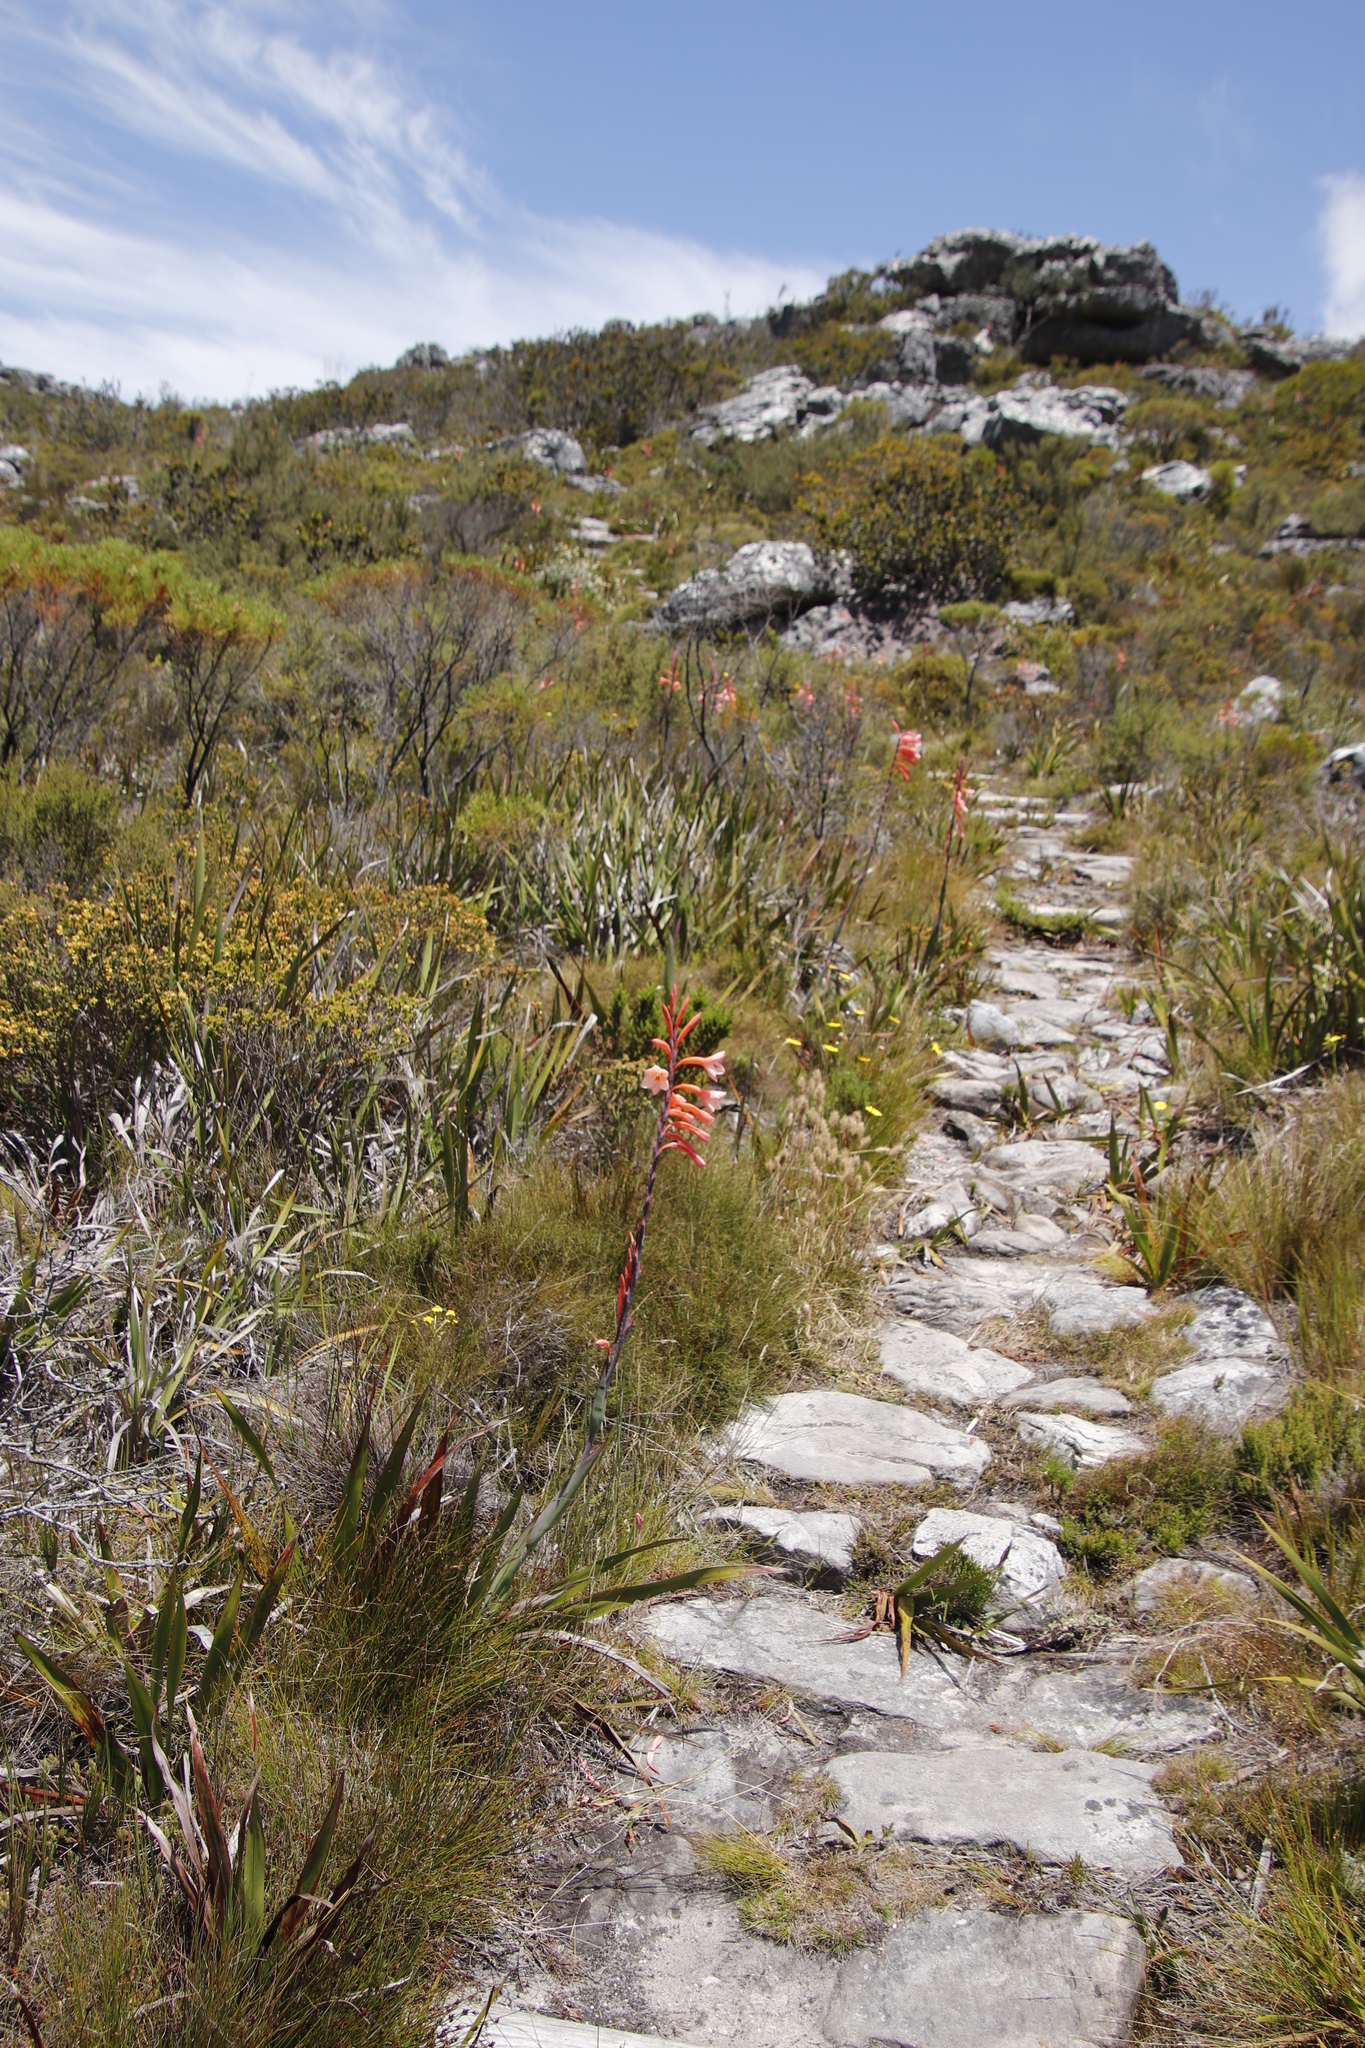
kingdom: Plantae
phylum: Tracheophyta
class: Liliopsida
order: Asparagales
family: Iridaceae
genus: Watsonia
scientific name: Watsonia tabularis
